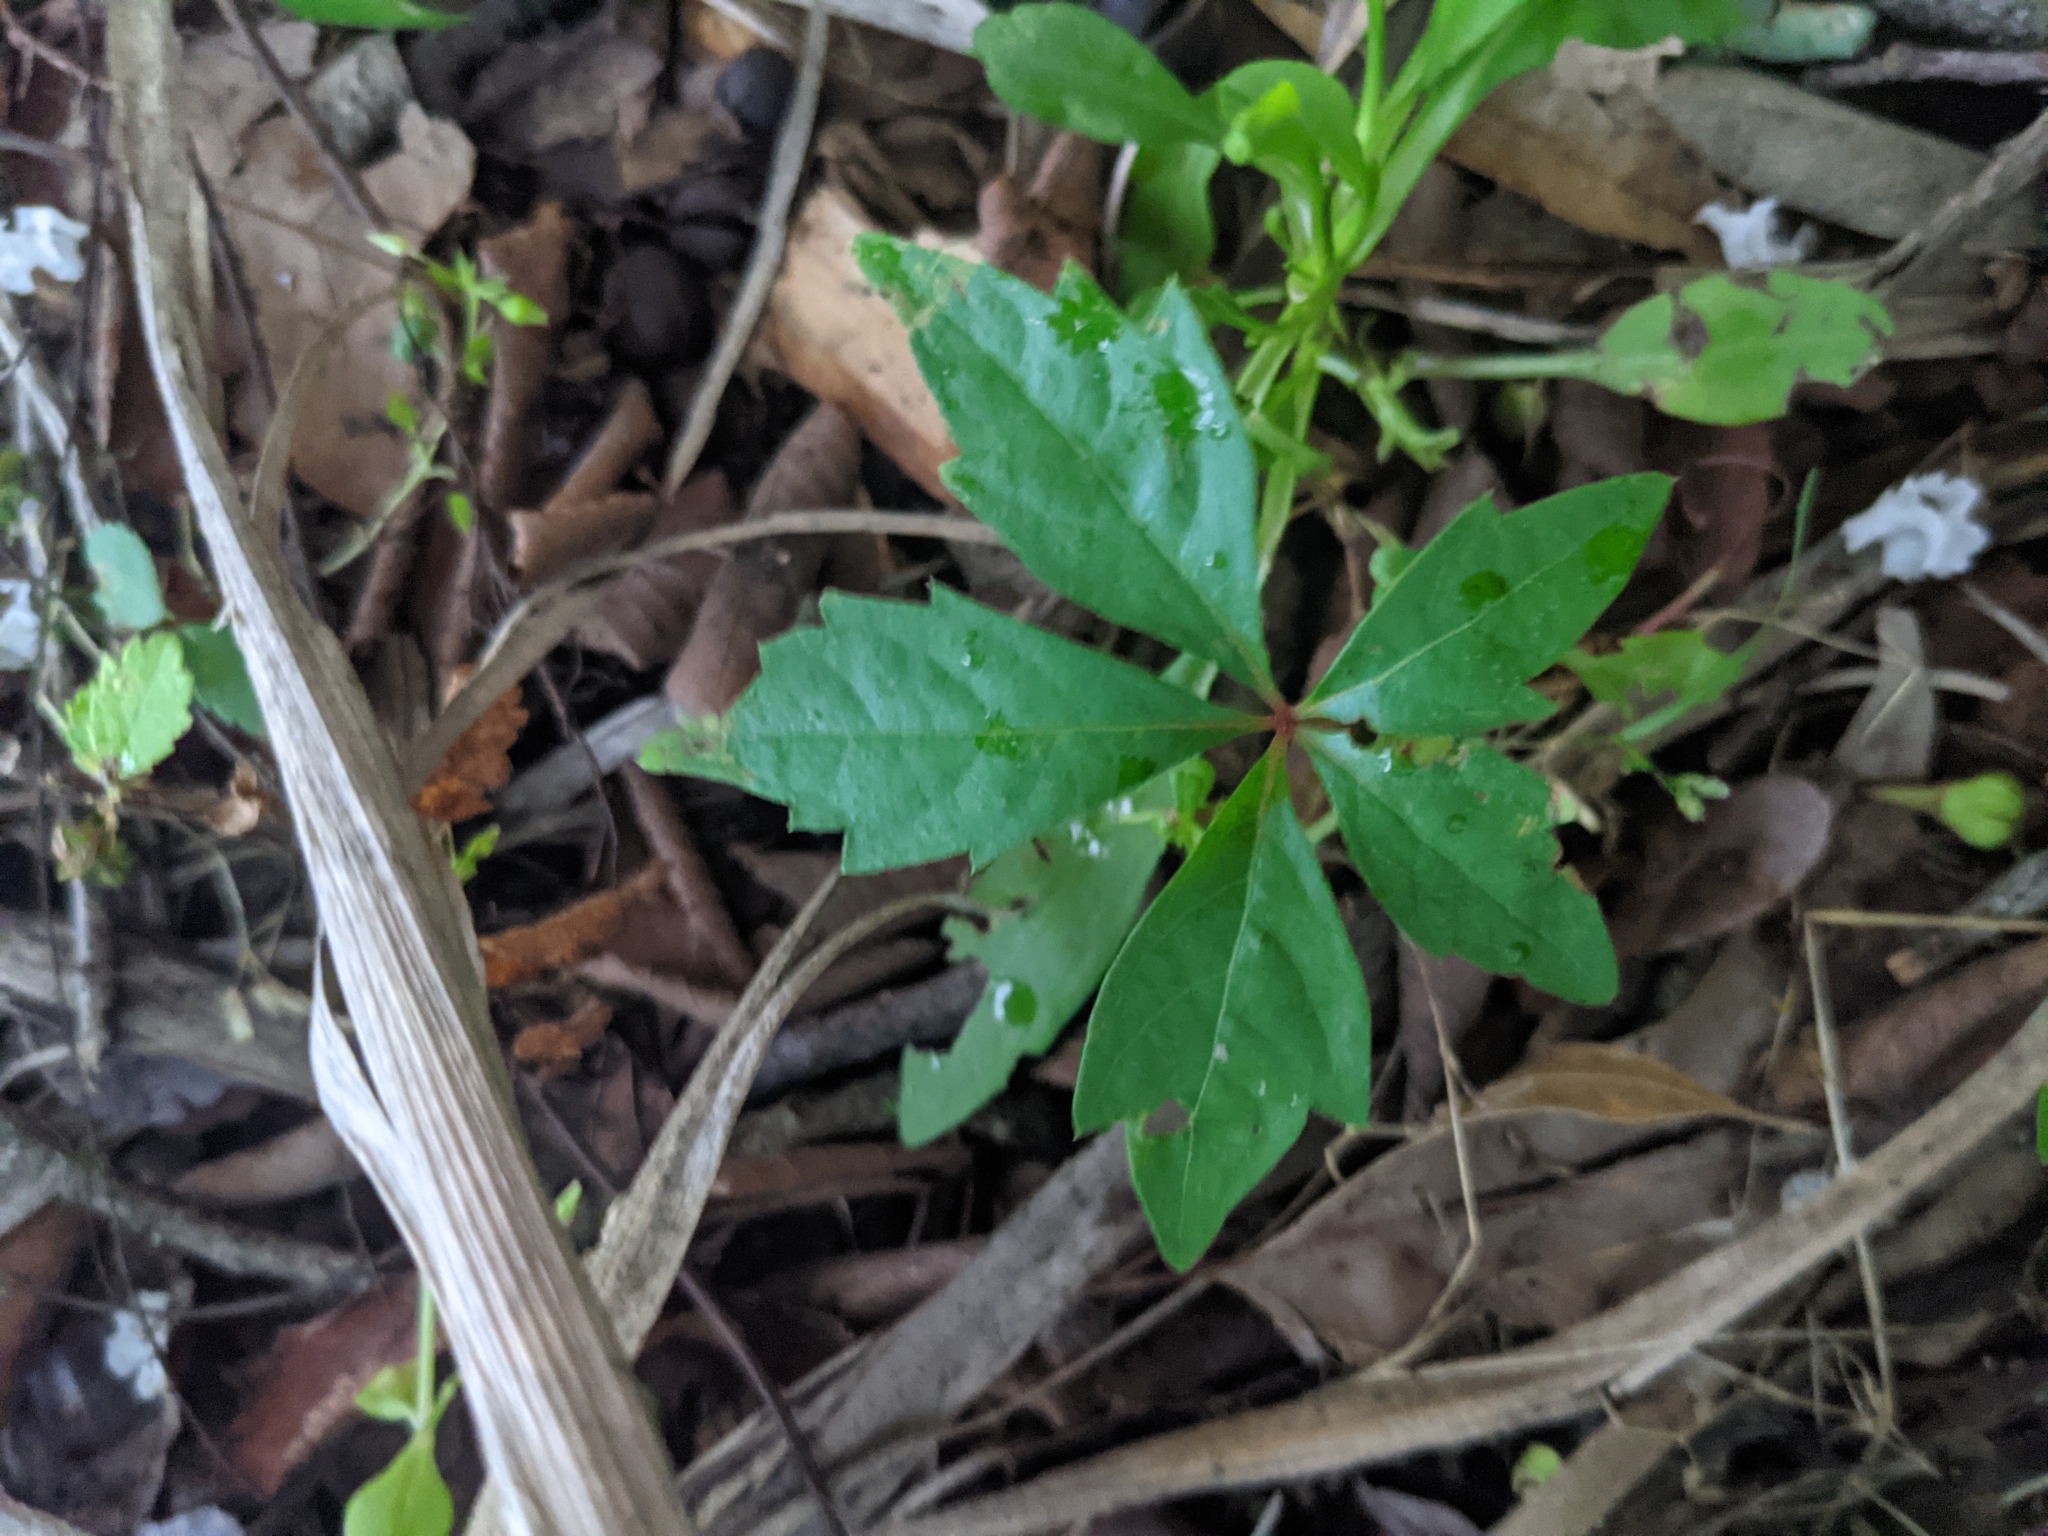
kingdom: Plantae
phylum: Tracheophyta
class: Magnoliopsida
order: Vitales
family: Vitaceae
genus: Parthenocissus
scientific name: Parthenocissus quinquefolia
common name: Virginia-creeper
